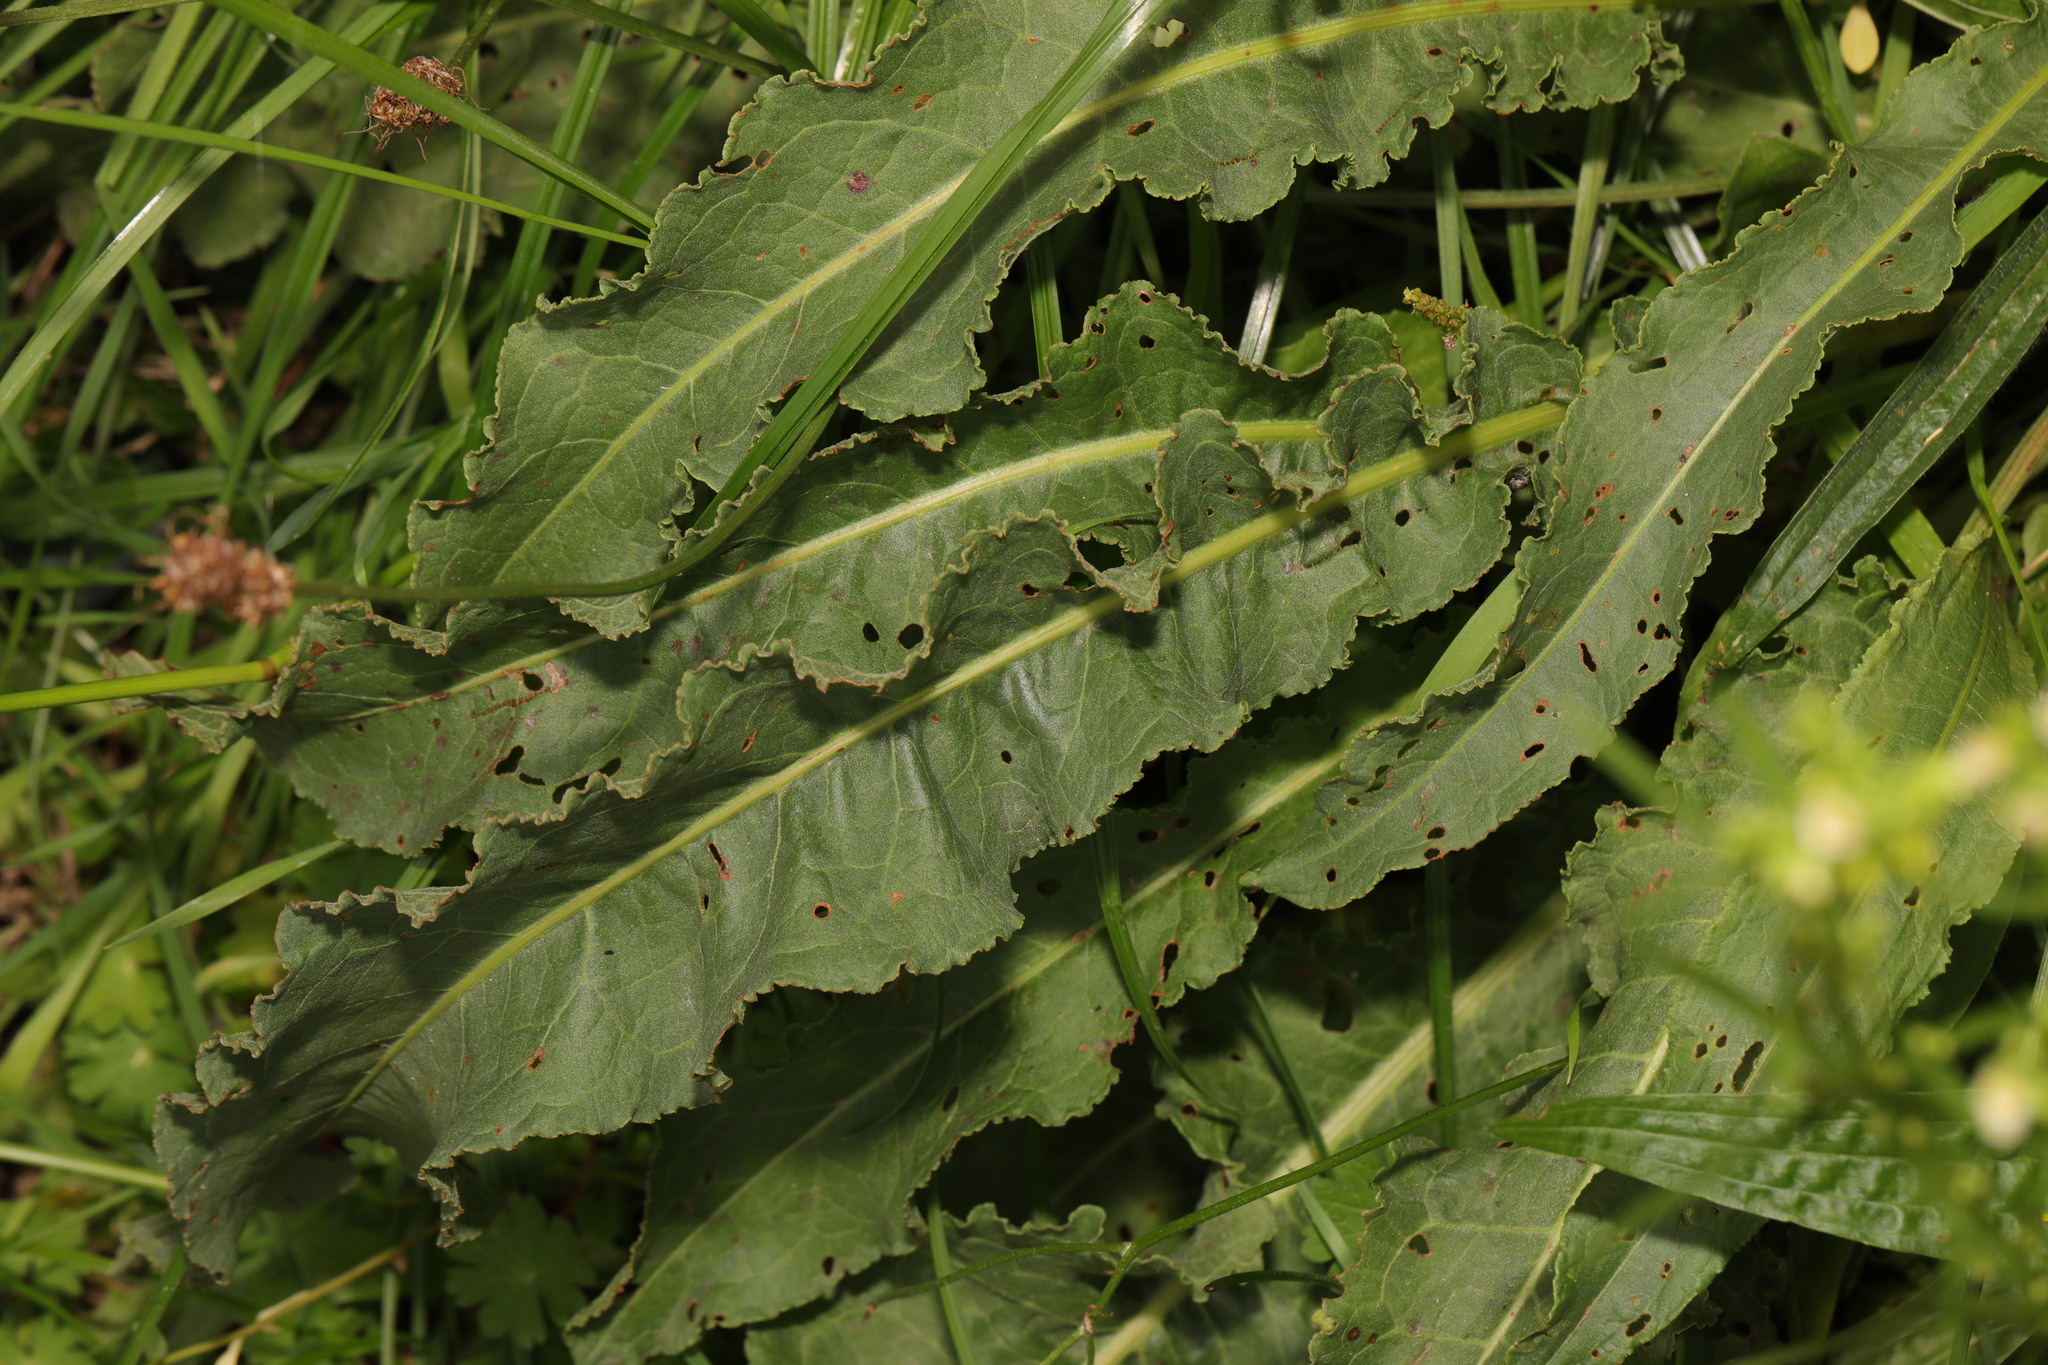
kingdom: Plantae
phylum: Tracheophyta
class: Magnoliopsida
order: Caryophyllales
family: Polygonaceae
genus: Rumex
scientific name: Rumex crispus
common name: Curled dock
